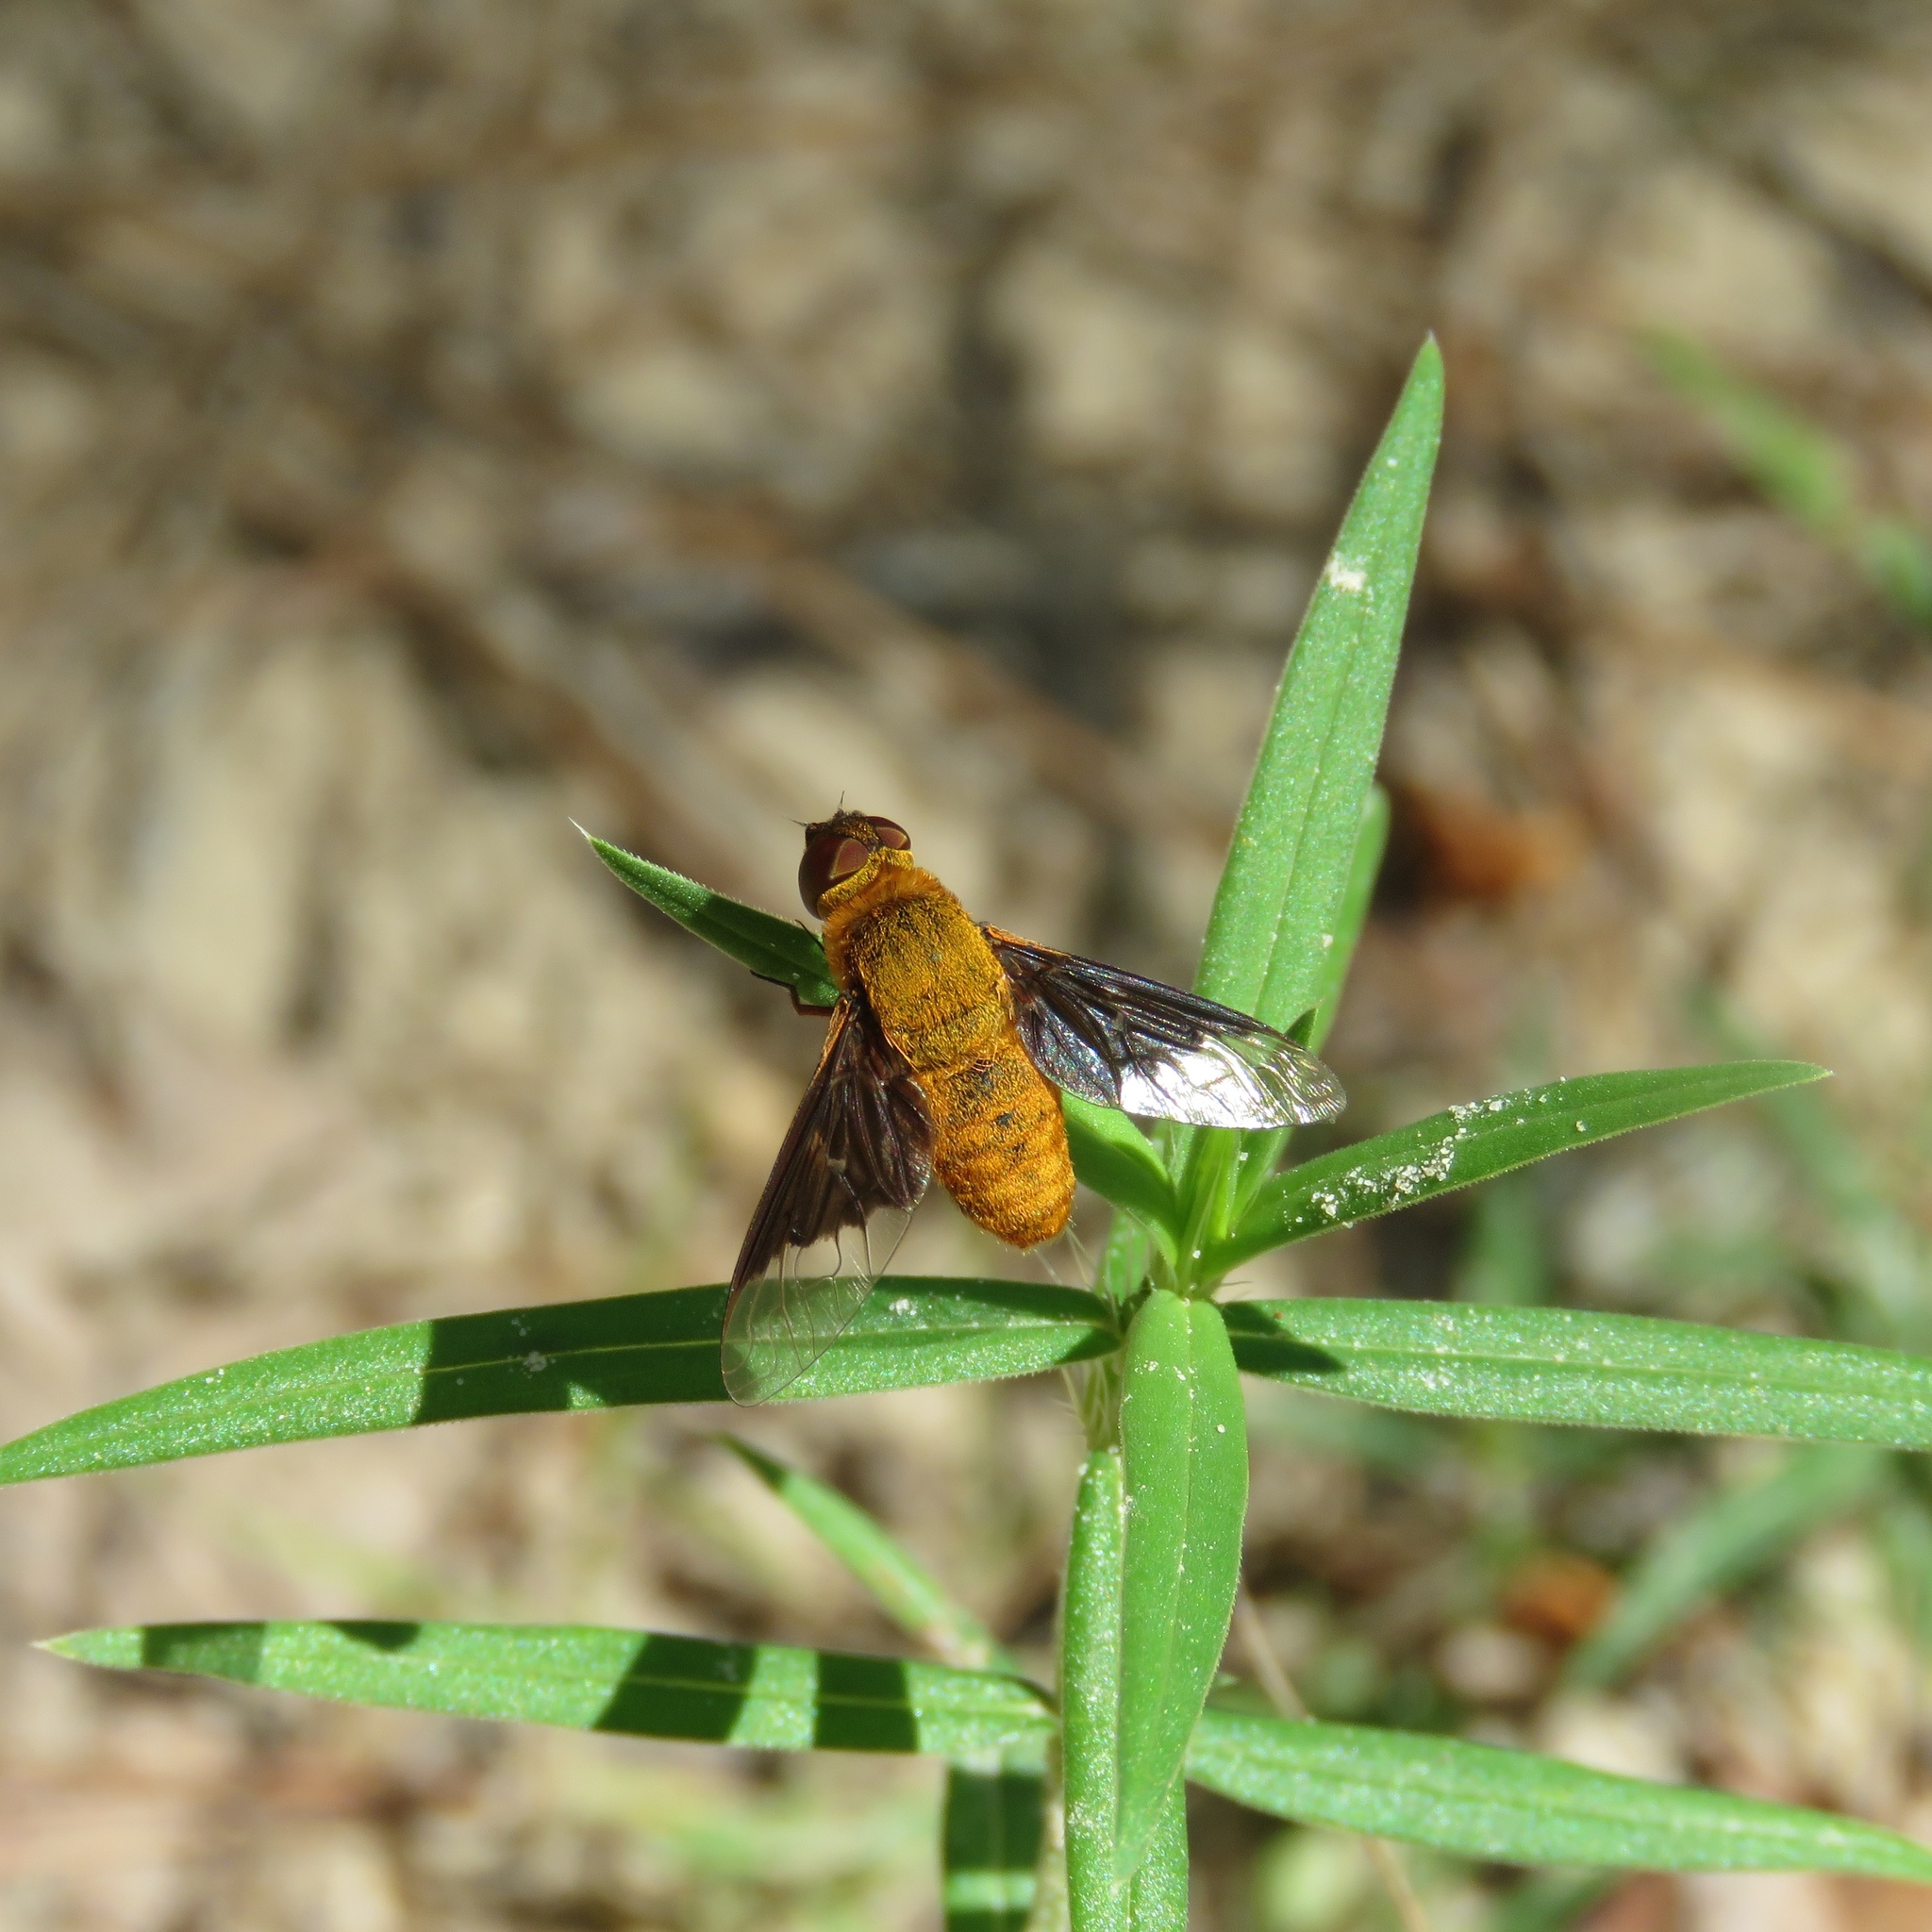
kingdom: Animalia
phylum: Arthropoda
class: Insecta
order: Diptera
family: Bombyliidae
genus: Chrysanthrax
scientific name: Chrysanthrax cypris
